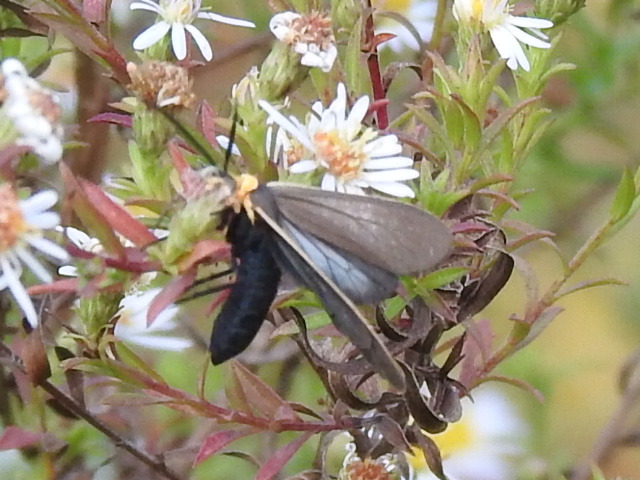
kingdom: Animalia
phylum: Arthropoda
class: Insecta
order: Lepidoptera
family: Erebidae
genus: Cisseps
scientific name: Cisseps fulvicollis
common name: Yellow-collared scape moth
